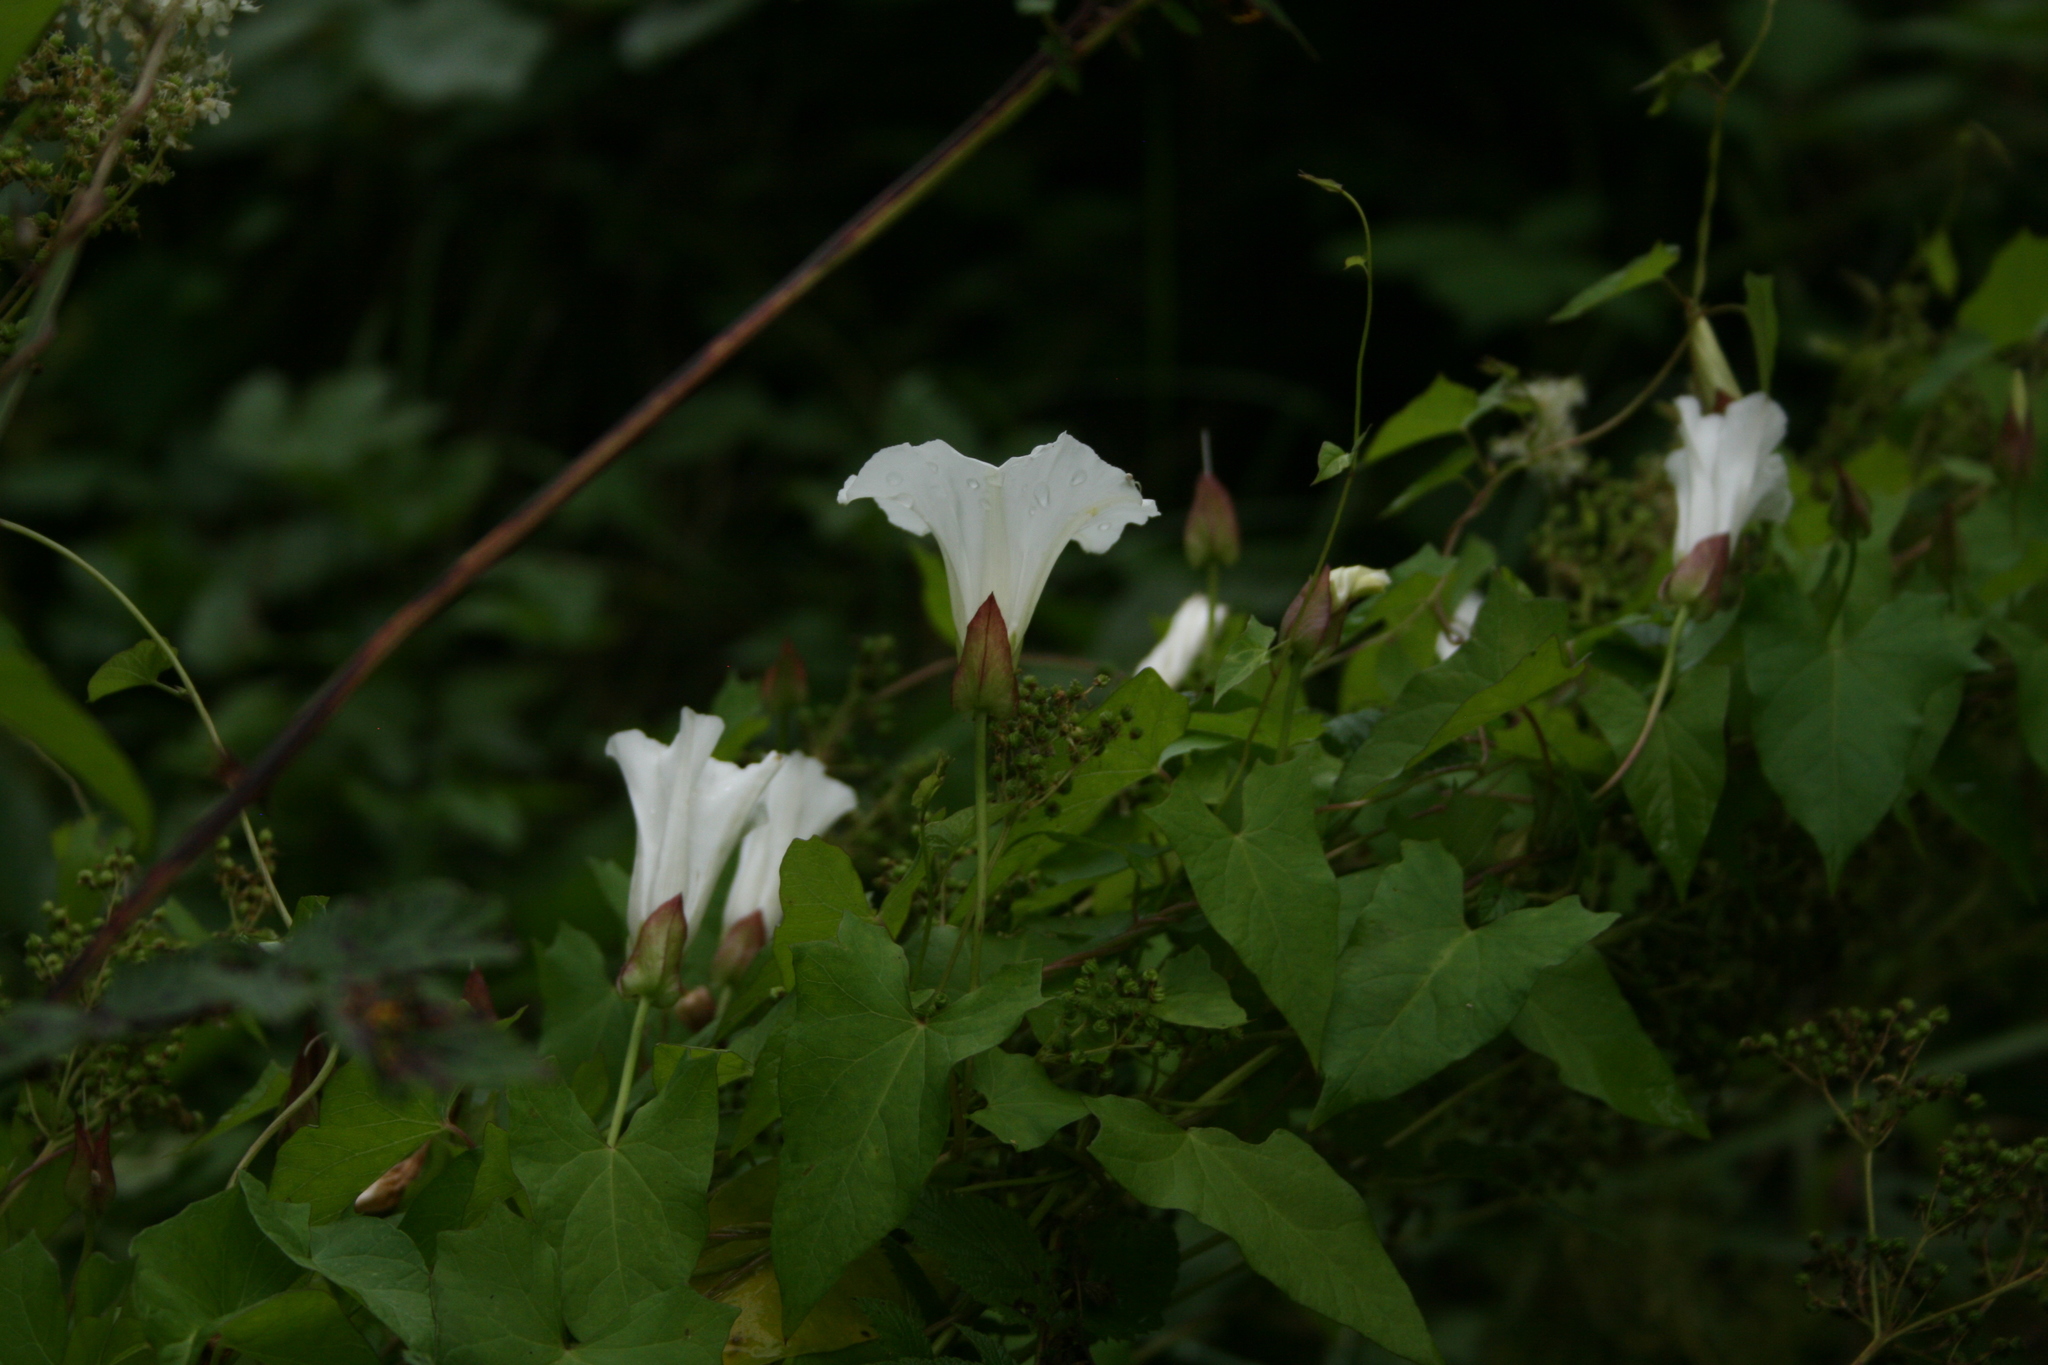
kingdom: Plantae
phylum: Tracheophyta
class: Magnoliopsida
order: Solanales
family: Convolvulaceae
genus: Calystegia
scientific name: Calystegia sepium
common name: Hedge bindweed
